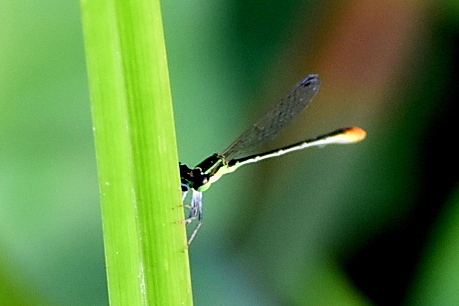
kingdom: Animalia
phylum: Arthropoda
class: Insecta
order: Odonata
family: Coenagrionidae
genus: Agriocnemis
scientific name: Agriocnemis pygmaea
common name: Pygmy wisp
